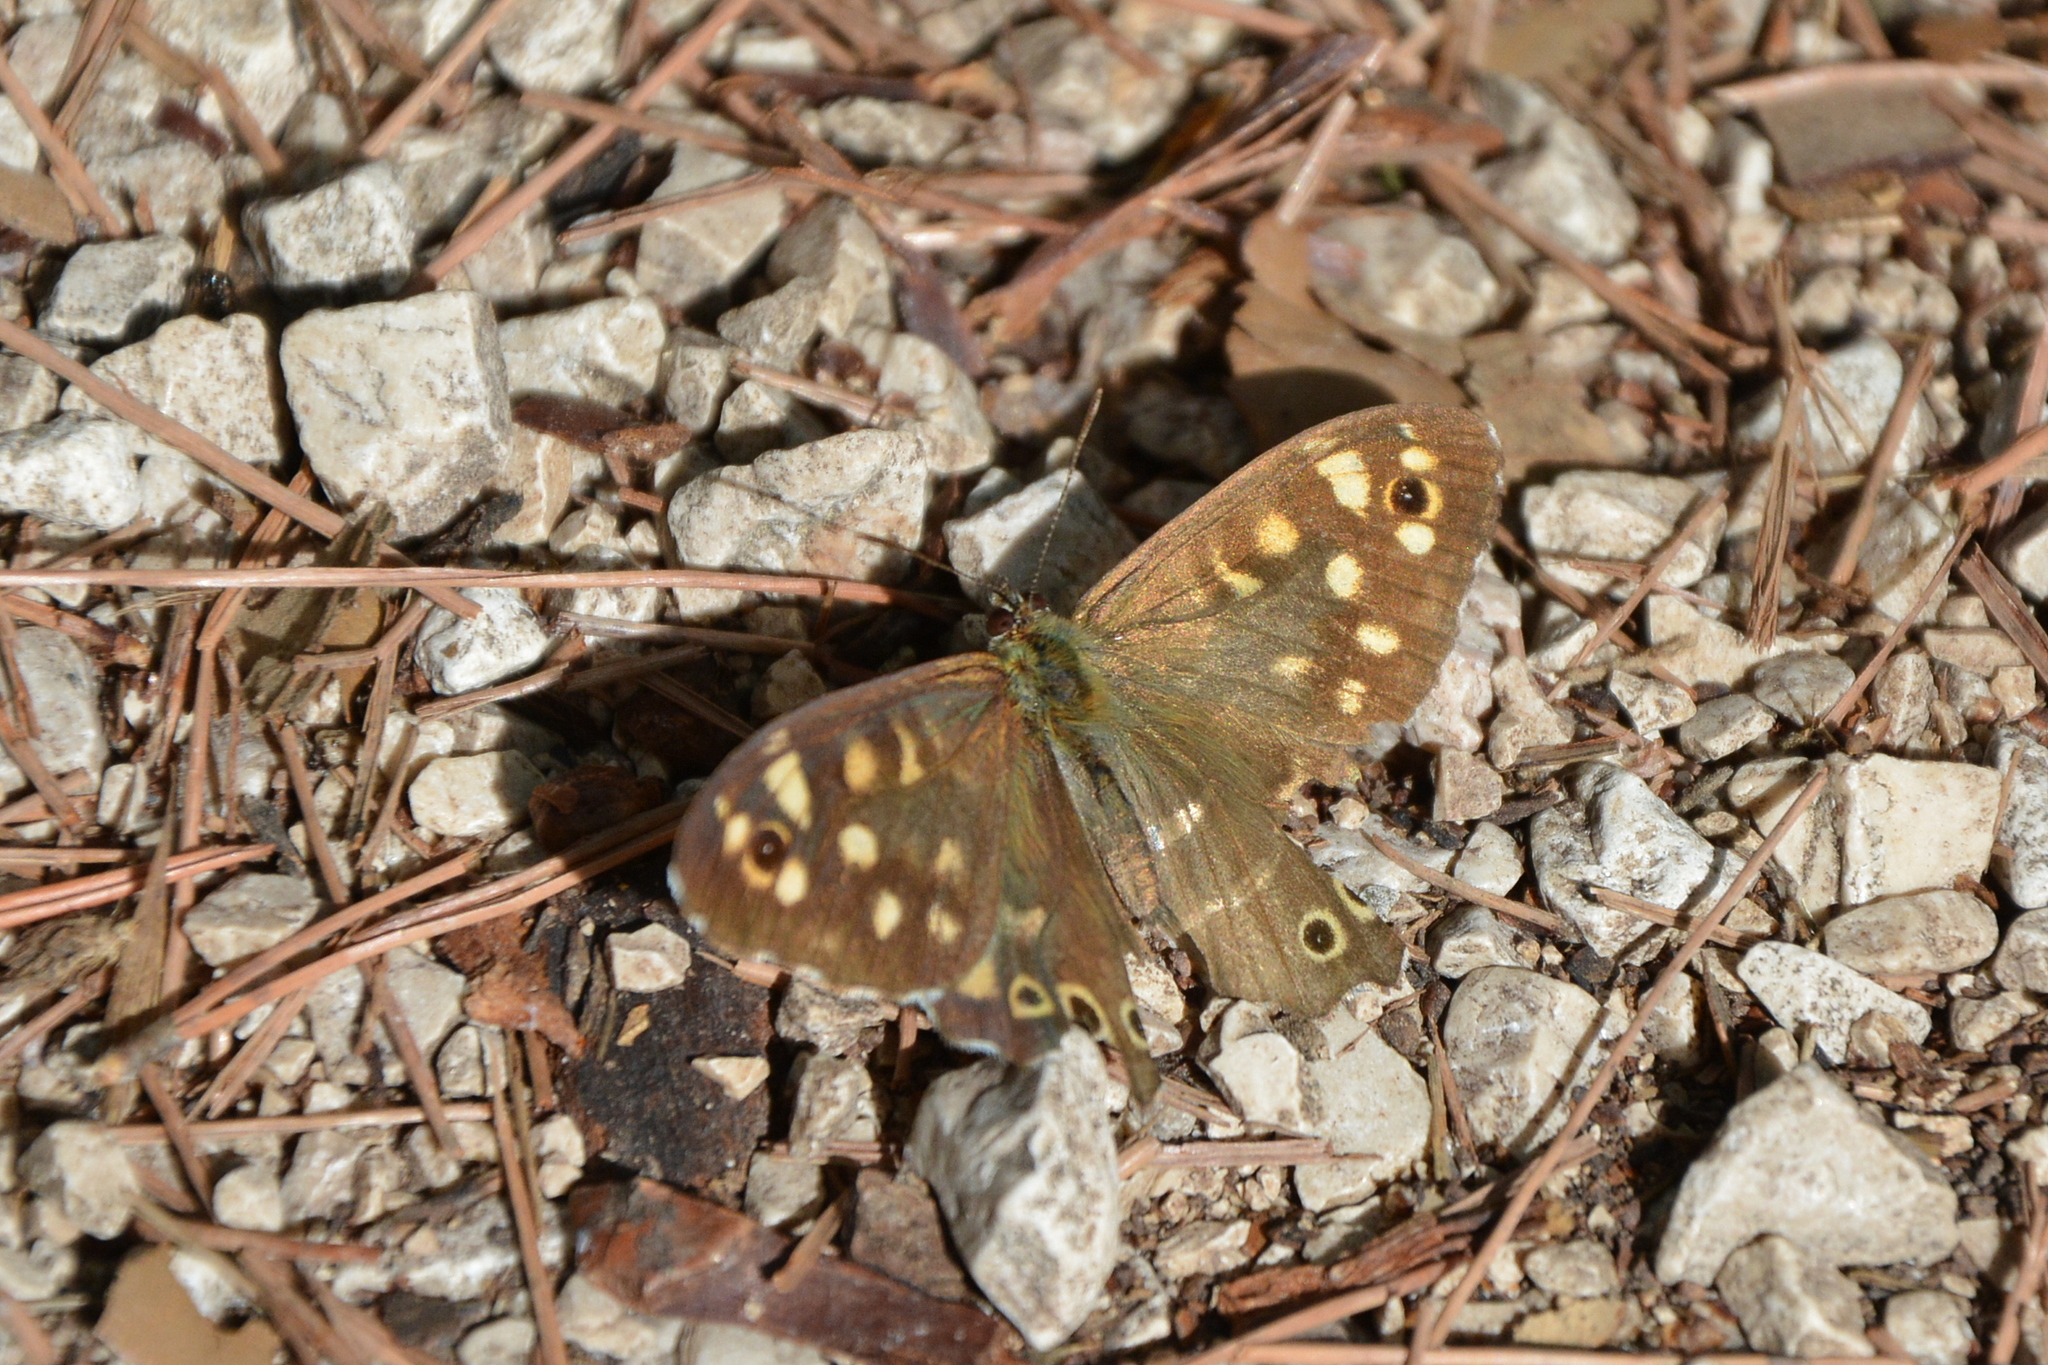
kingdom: Animalia
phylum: Arthropoda
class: Insecta
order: Lepidoptera
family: Nymphalidae
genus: Pararge
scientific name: Pararge aegeria
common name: Speckled wood
